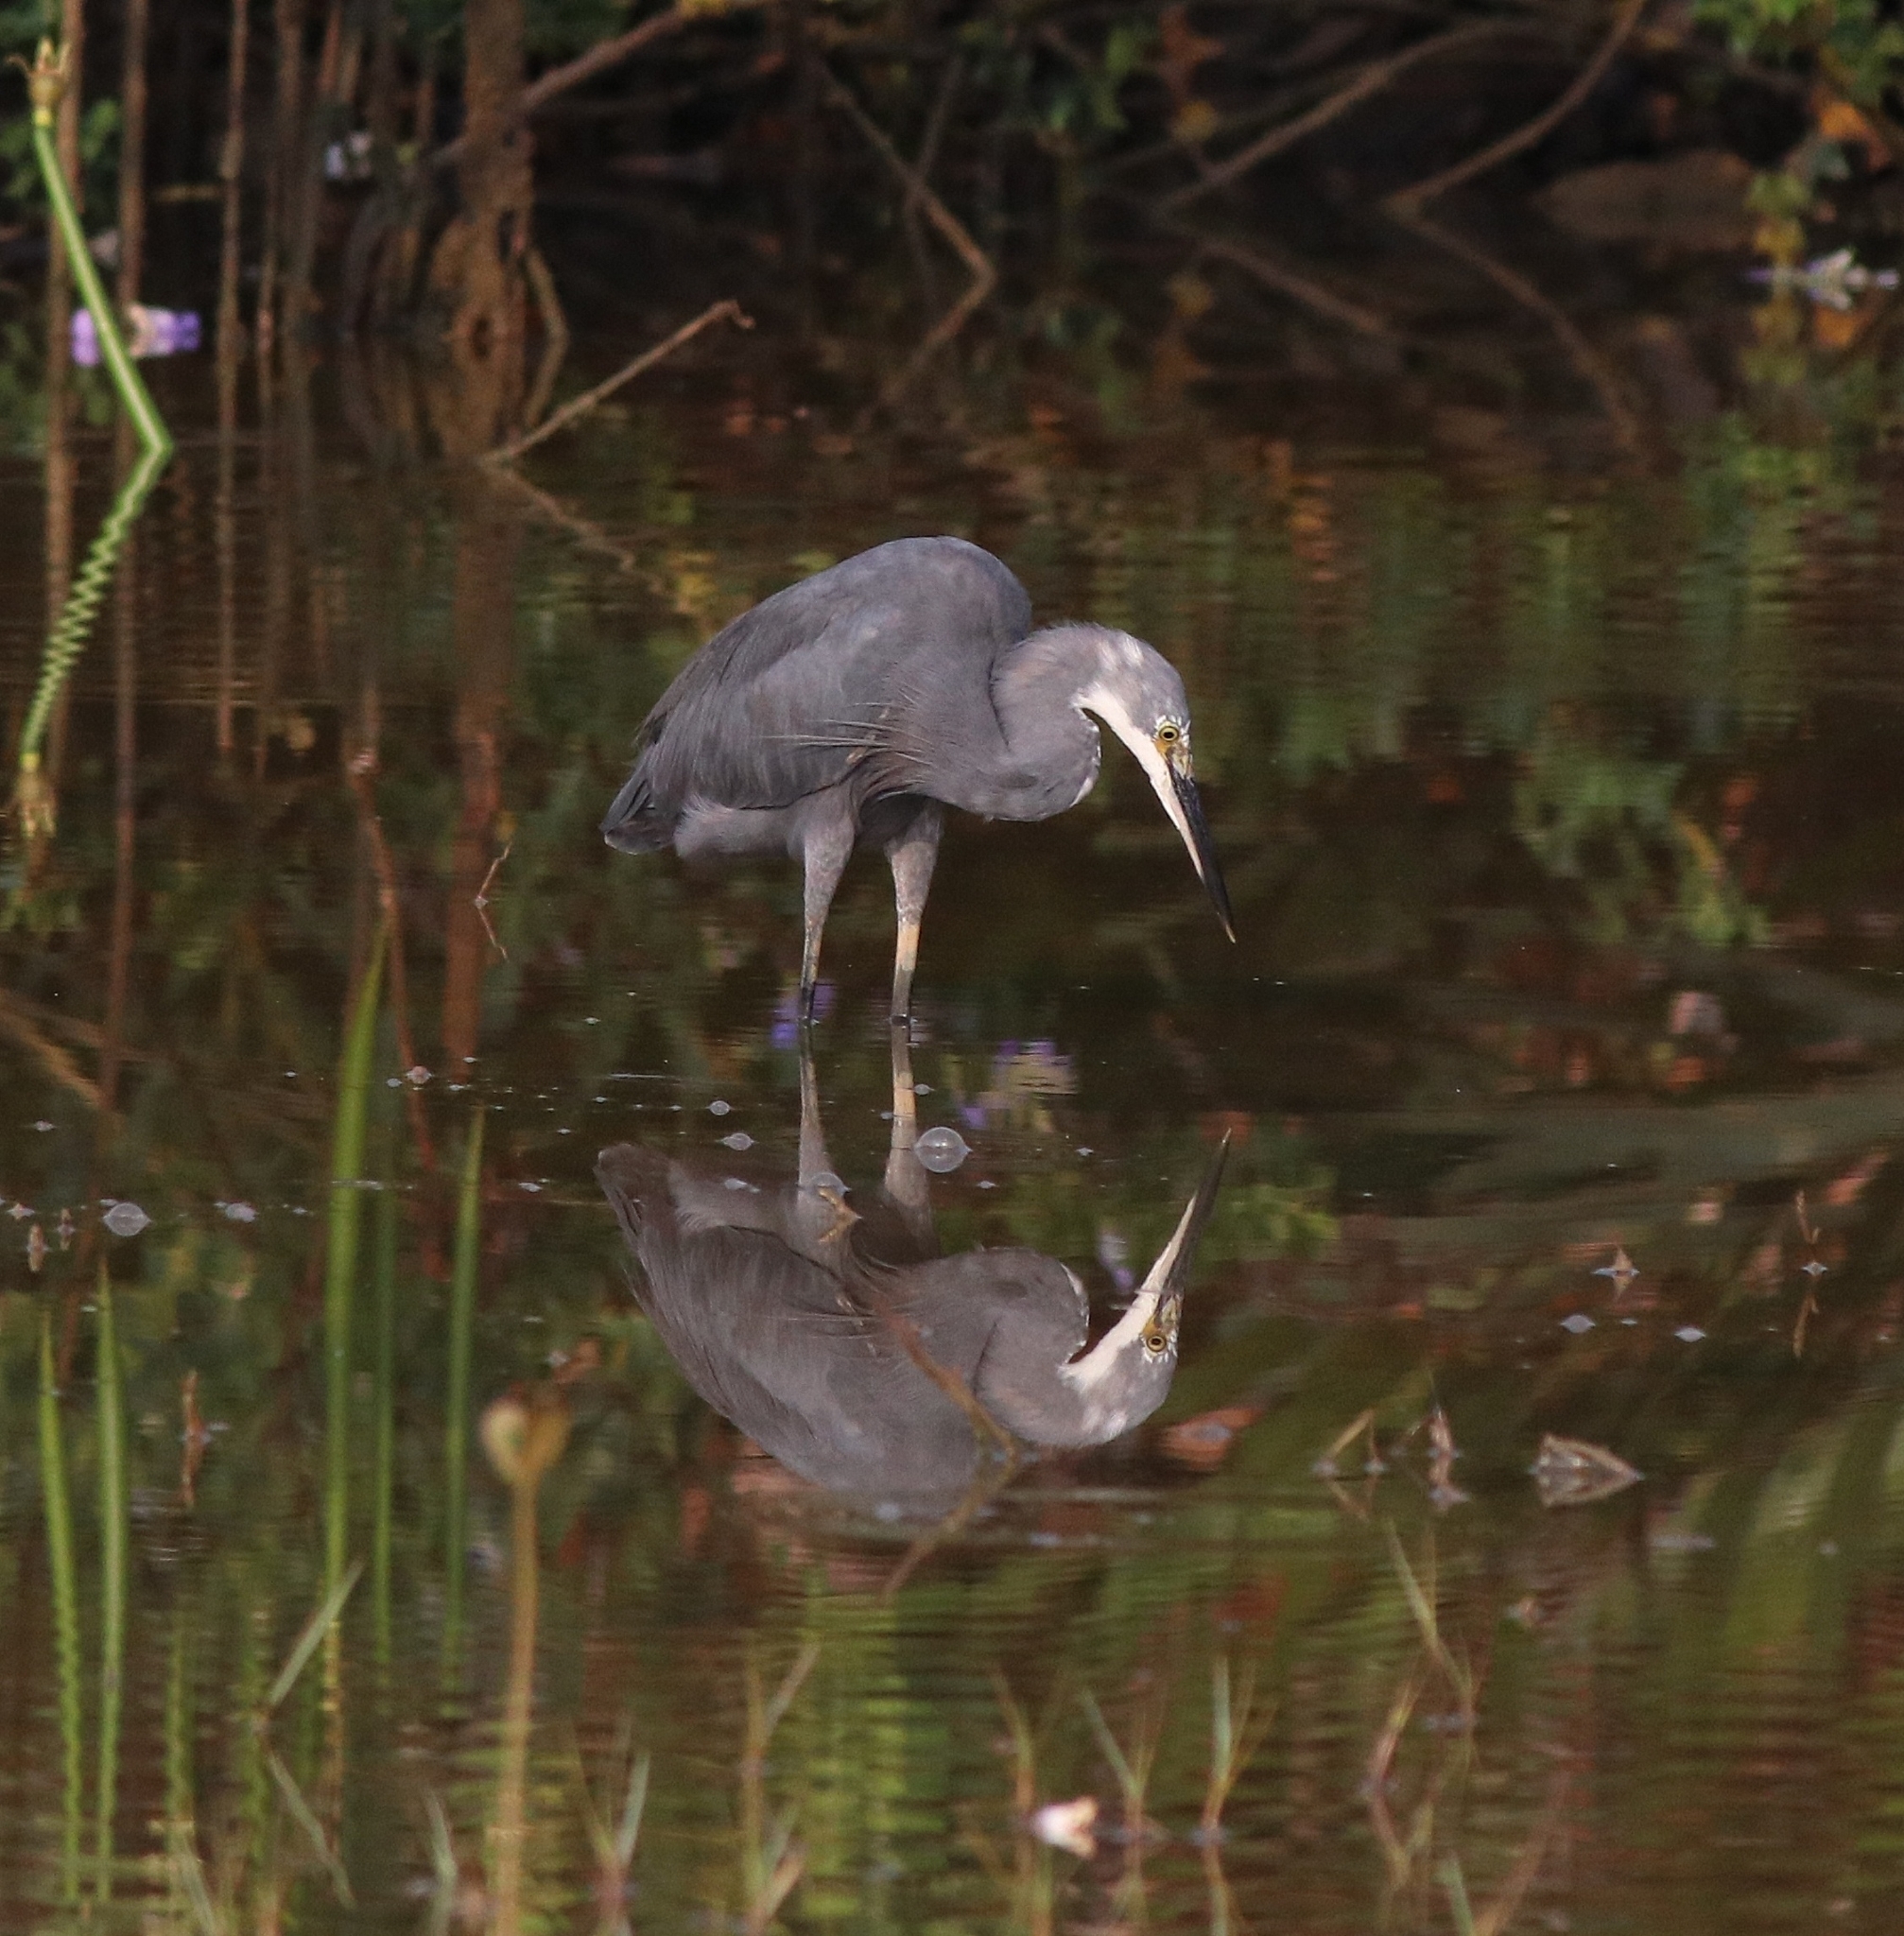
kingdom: Animalia
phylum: Chordata
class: Aves
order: Pelecaniformes
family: Ardeidae
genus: Egretta
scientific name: Egretta garzetta
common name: Little egret
